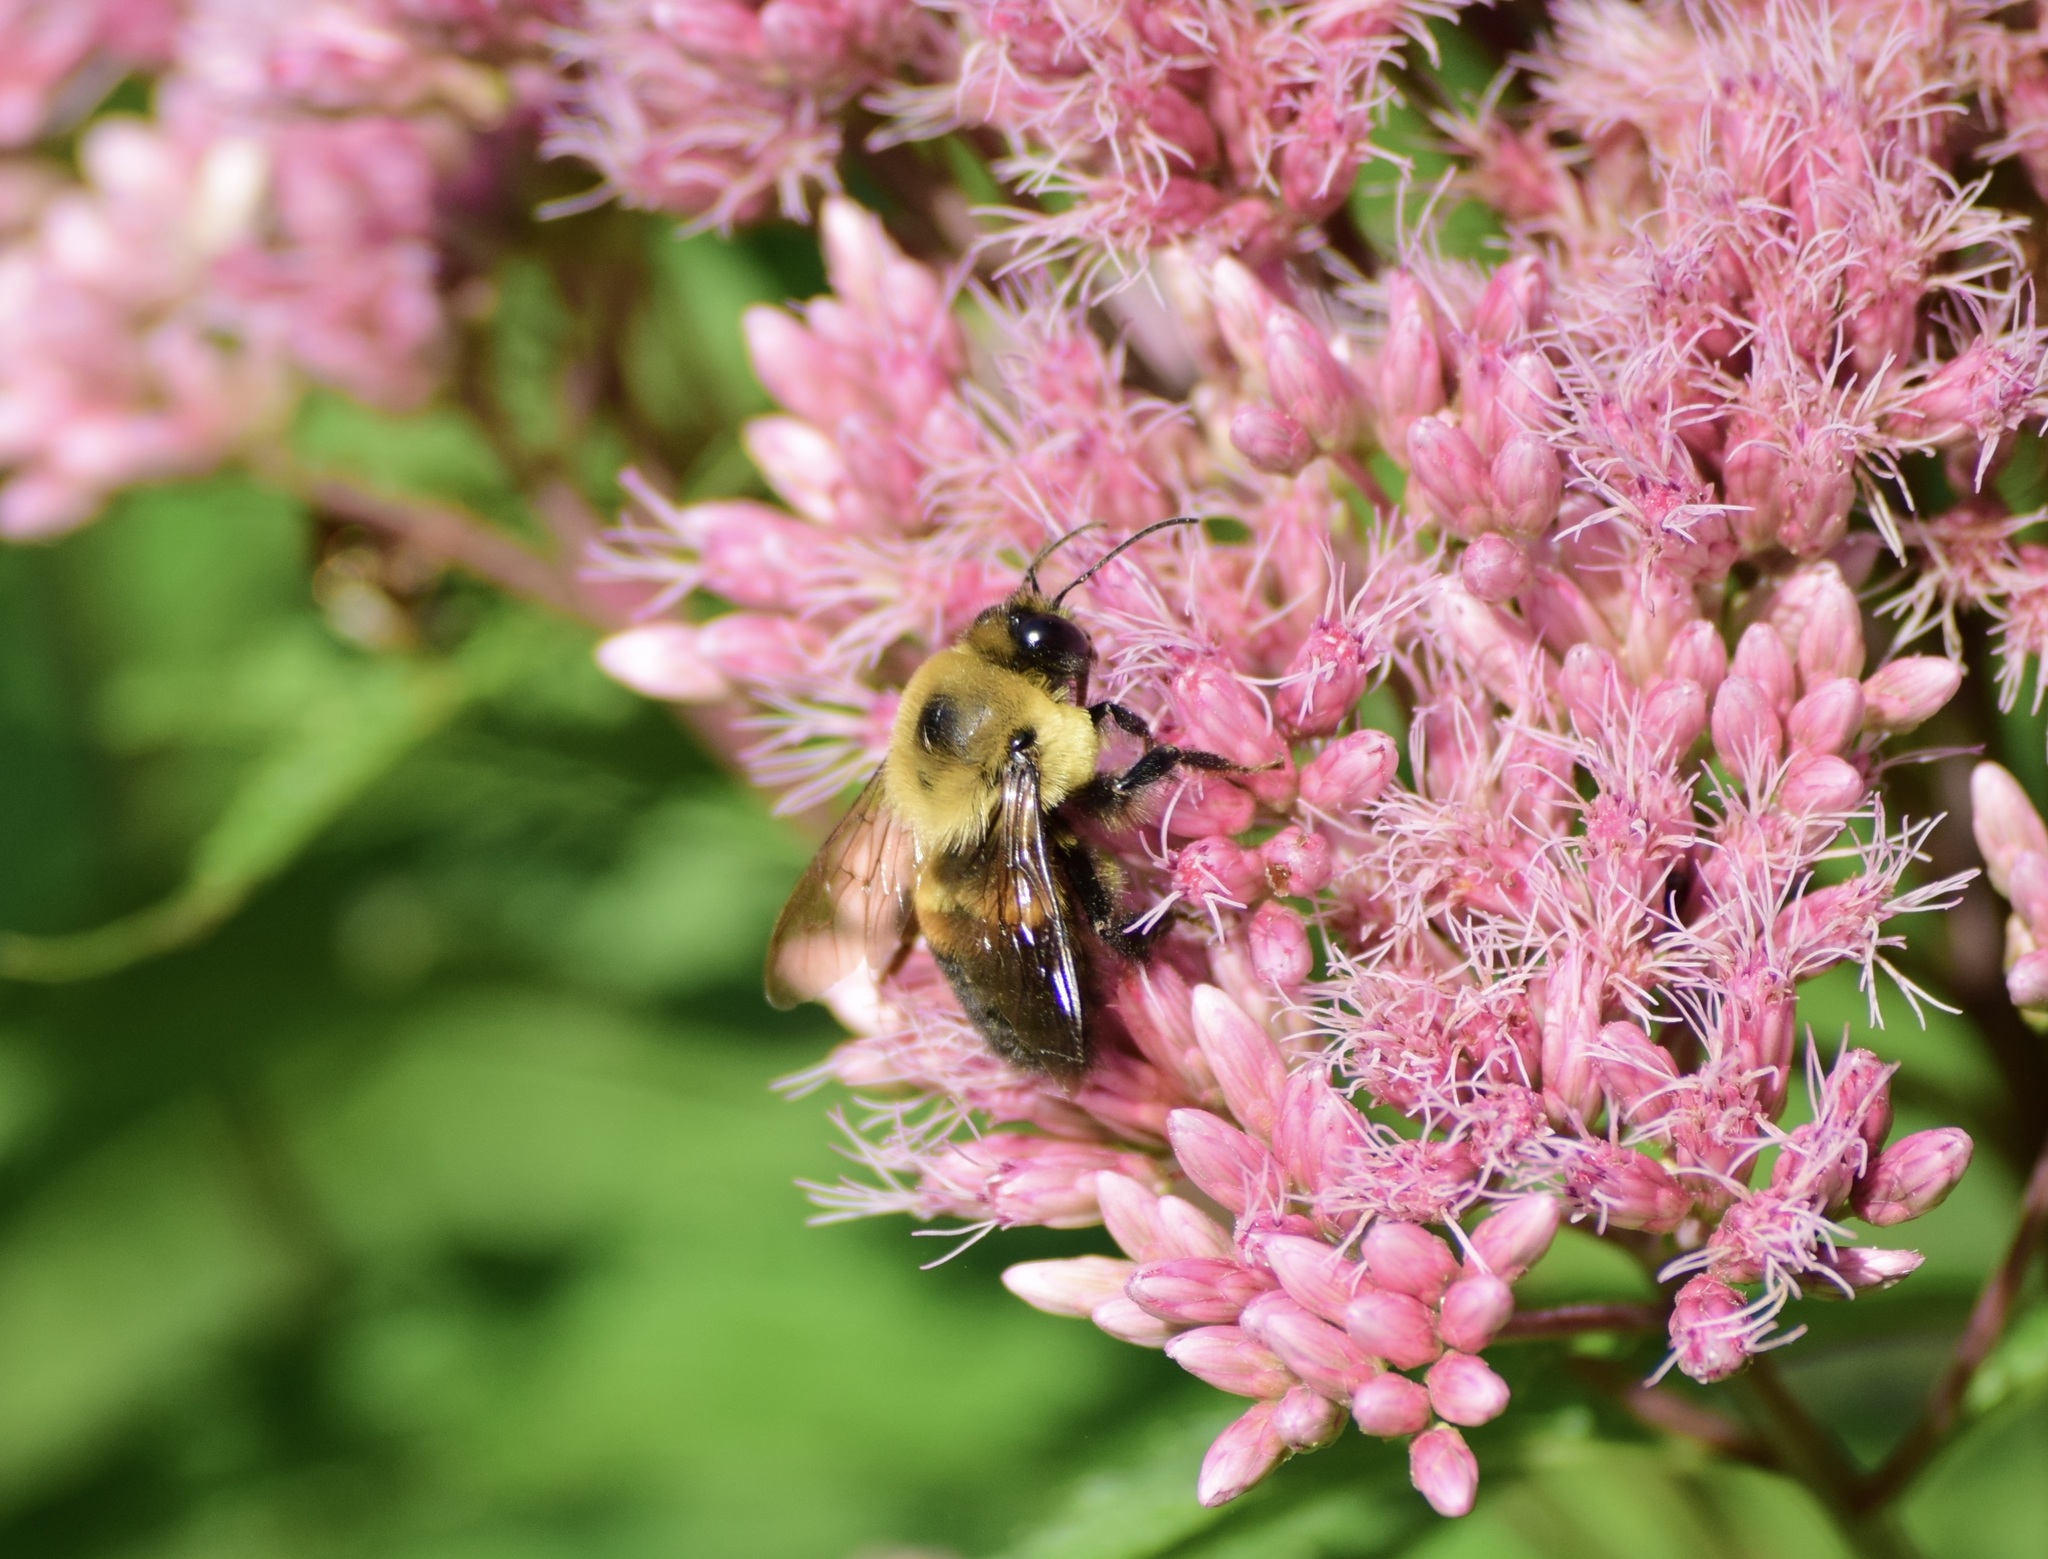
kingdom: Animalia
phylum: Arthropoda
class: Insecta
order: Hymenoptera
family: Apidae
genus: Bombus
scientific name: Bombus griseocollis
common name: Brown-belted bumble bee
